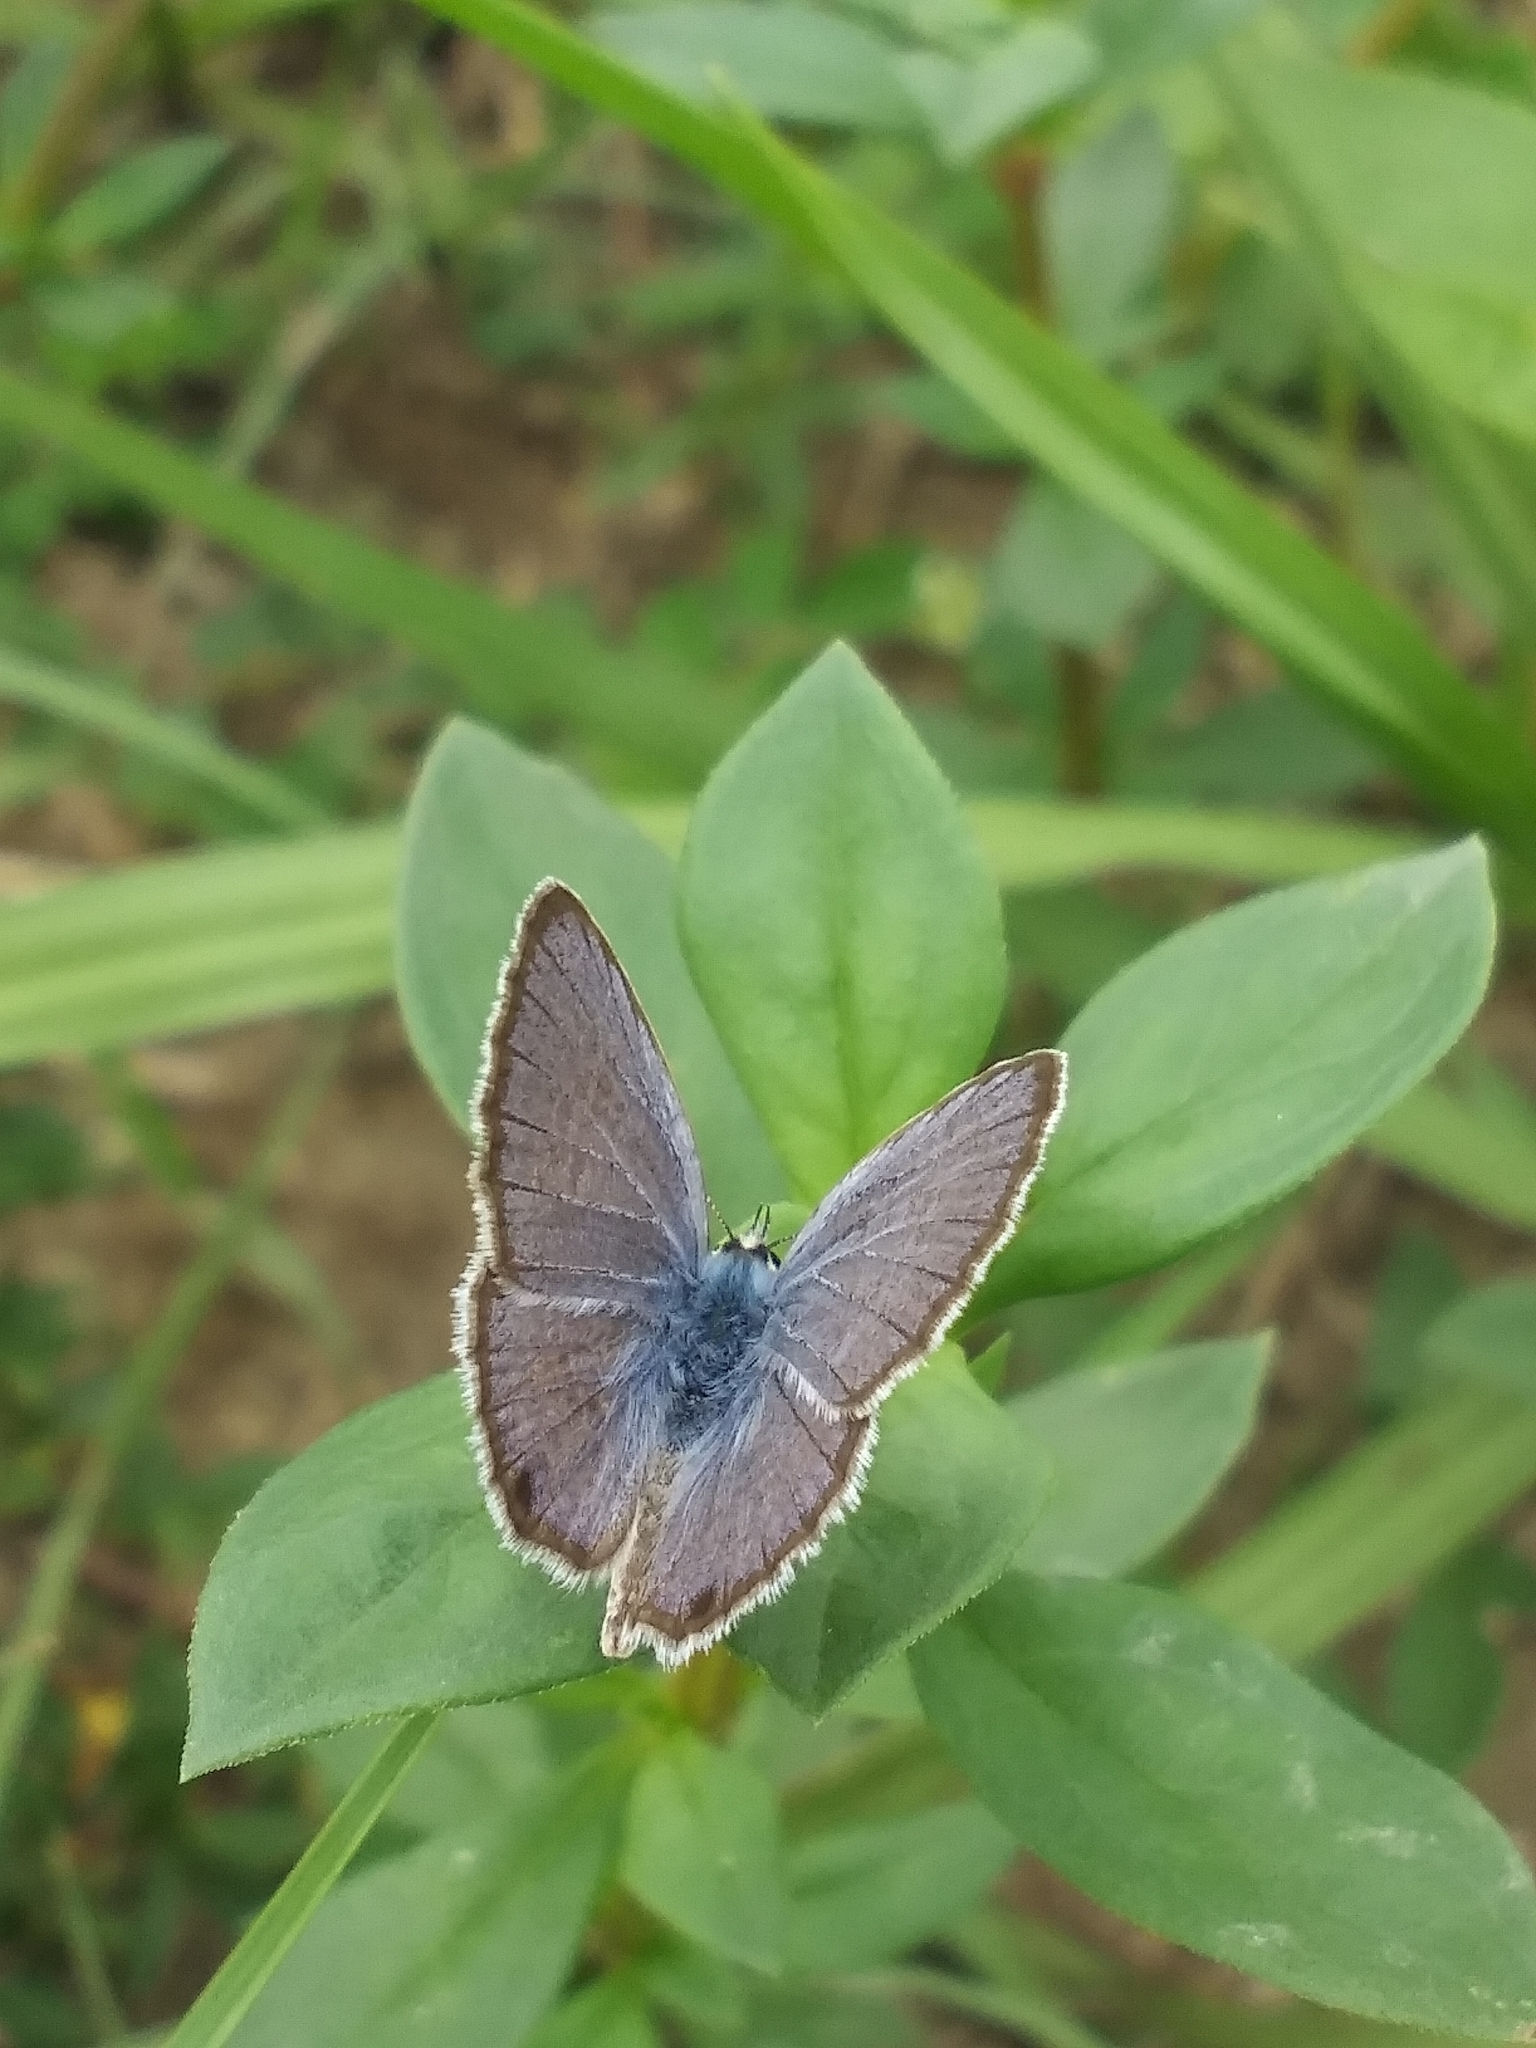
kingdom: Animalia
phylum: Arthropoda
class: Insecta
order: Lepidoptera
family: Lycaenidae
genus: Hemiargus
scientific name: Hemiargus ceraunus
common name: Ceraunus blue
